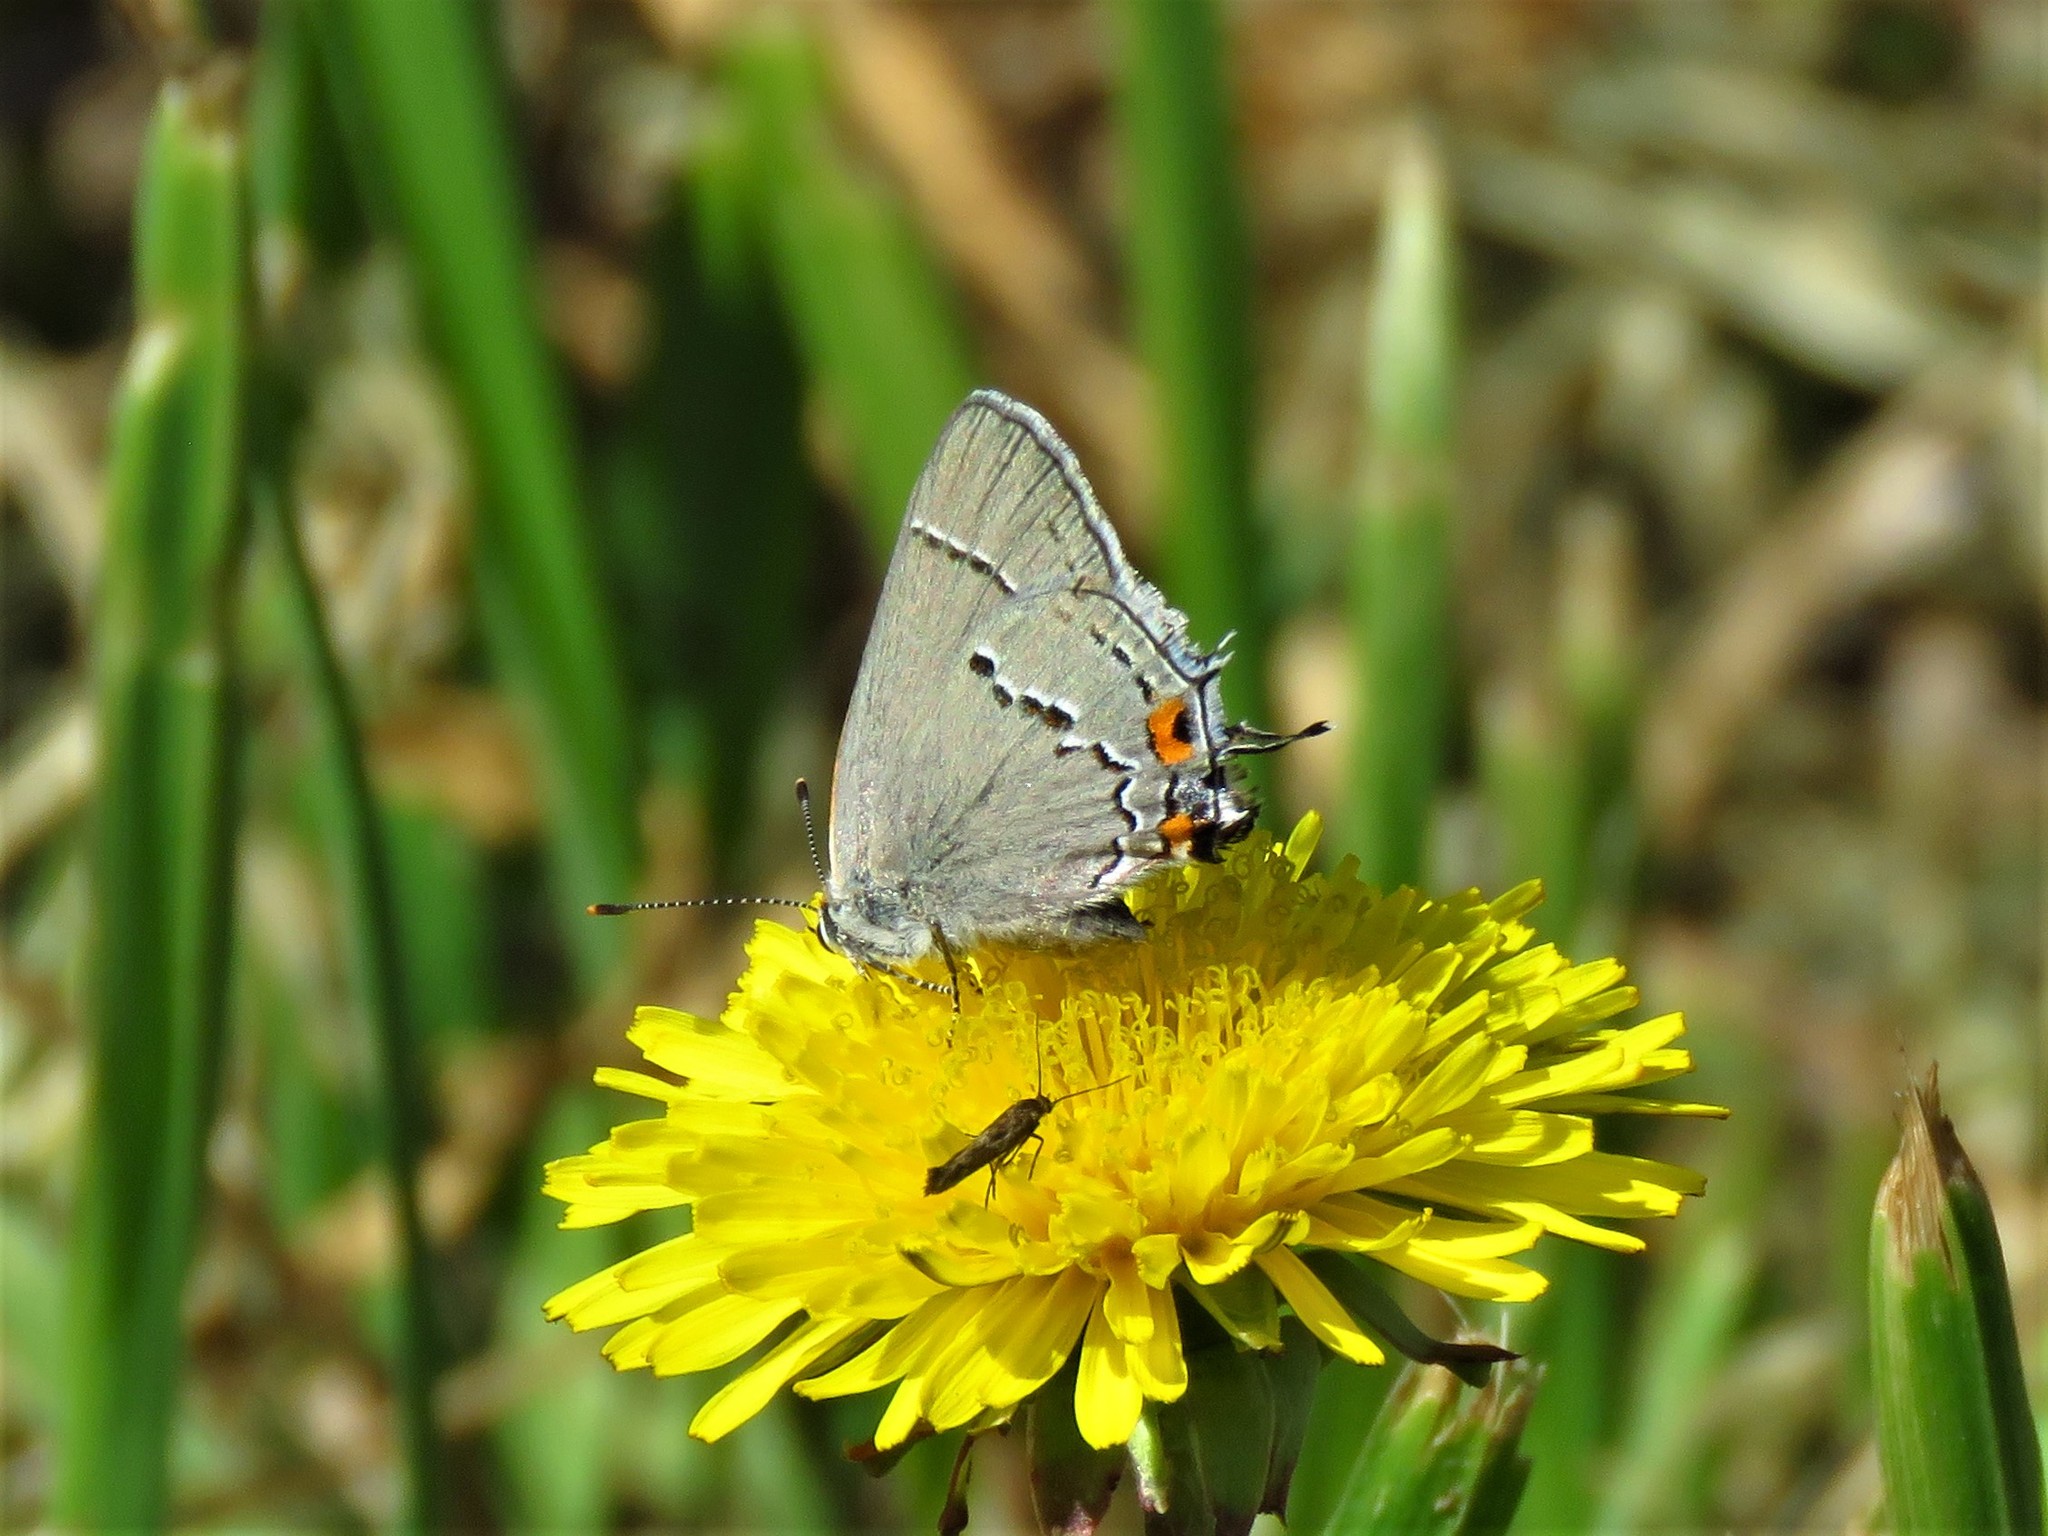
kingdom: Animalia
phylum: Arthropoda
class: Insecta
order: Lepidoptera
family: Lycaenidae
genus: Strymon
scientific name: Strymon melinus
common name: Gray hairstreak
